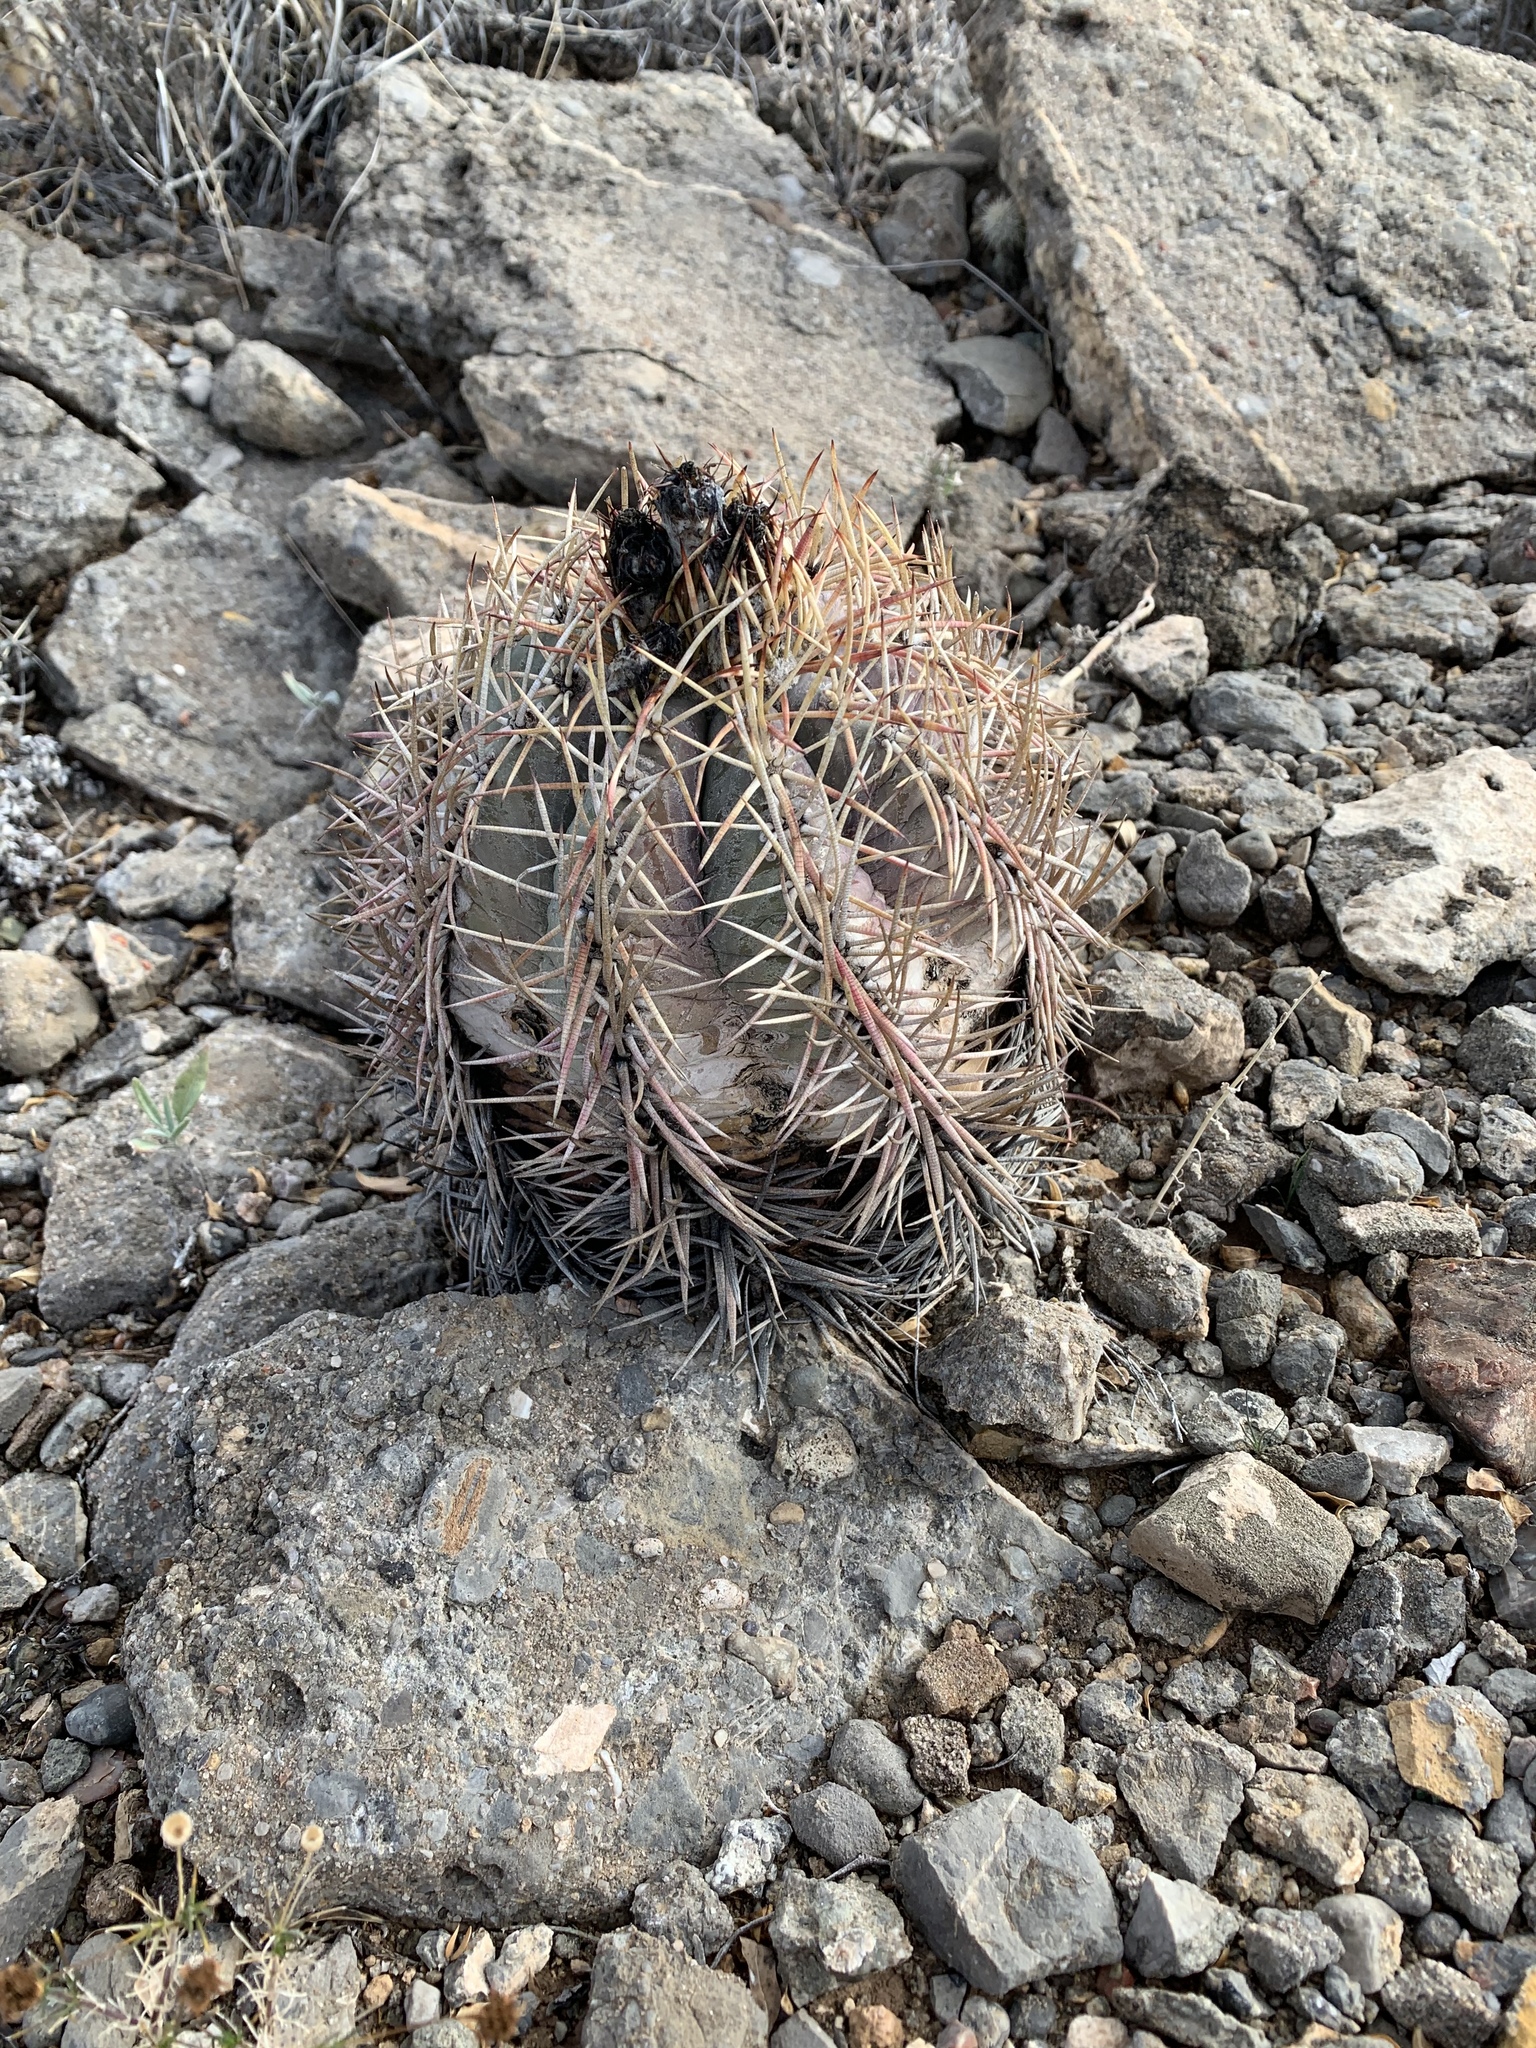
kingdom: Plantae
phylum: Tracheophyta
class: Magnoliopsida
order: Caryophyllales
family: Cactaceae
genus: Echinocactus
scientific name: Echinocactus horizonthalonius
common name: Devilshead
